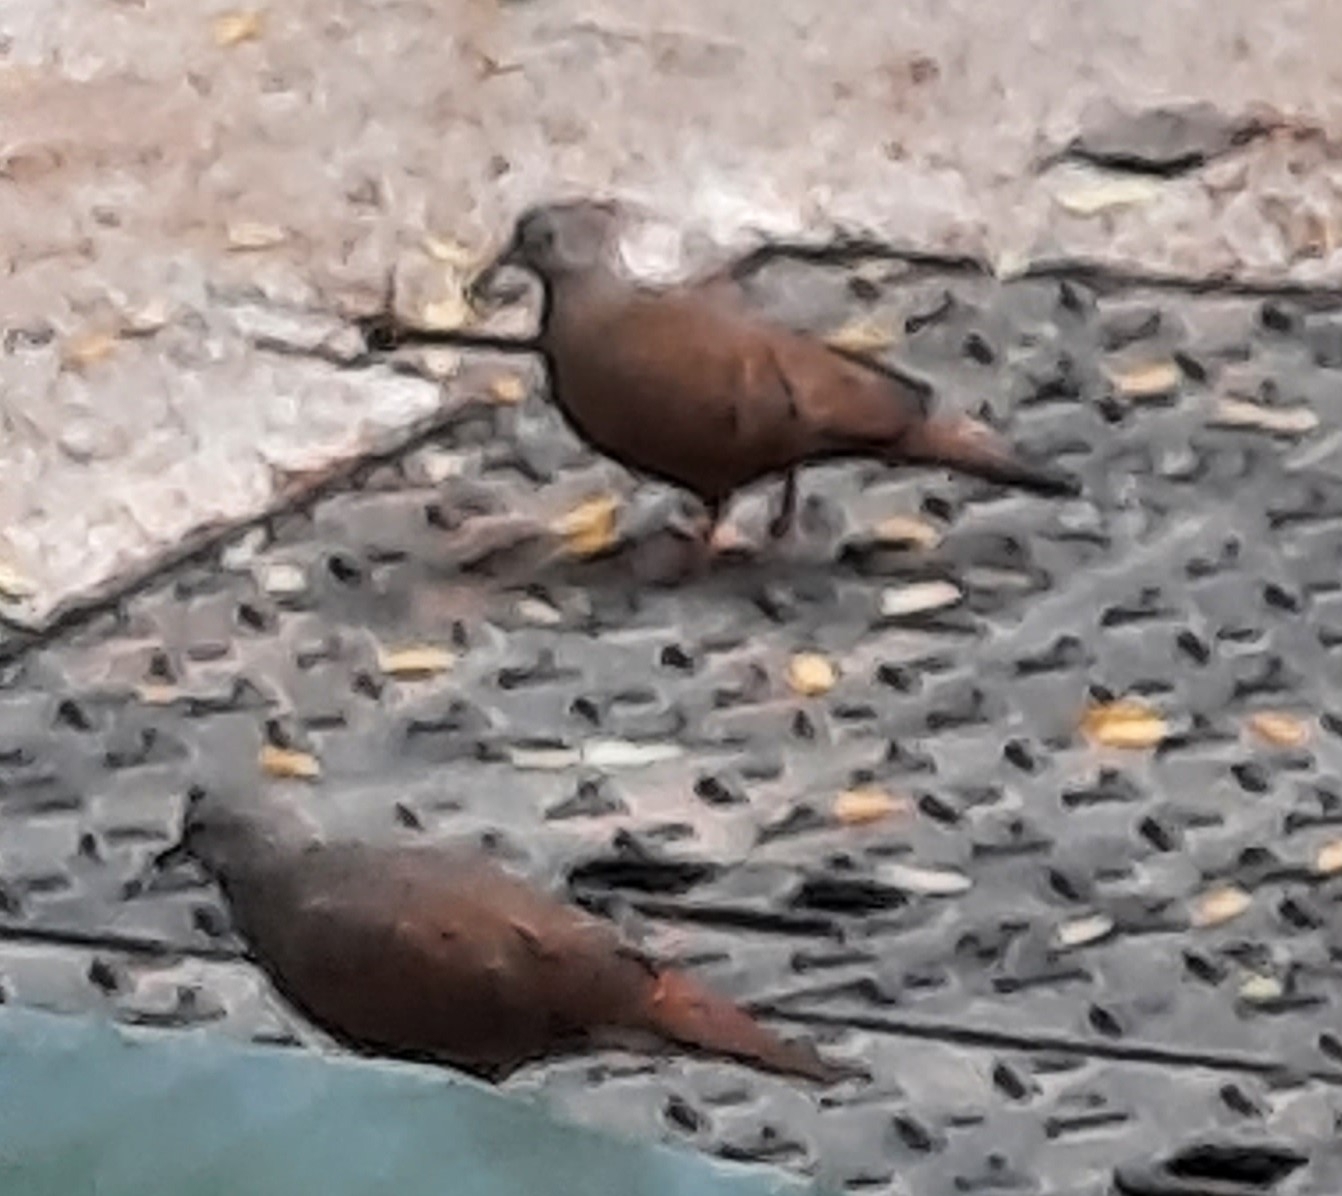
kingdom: Animalia
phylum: Chordata
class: Aves
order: Columbiformes
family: Columbidae
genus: Columbina
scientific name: Columbina talpacoti
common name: Ruddy ground dove
